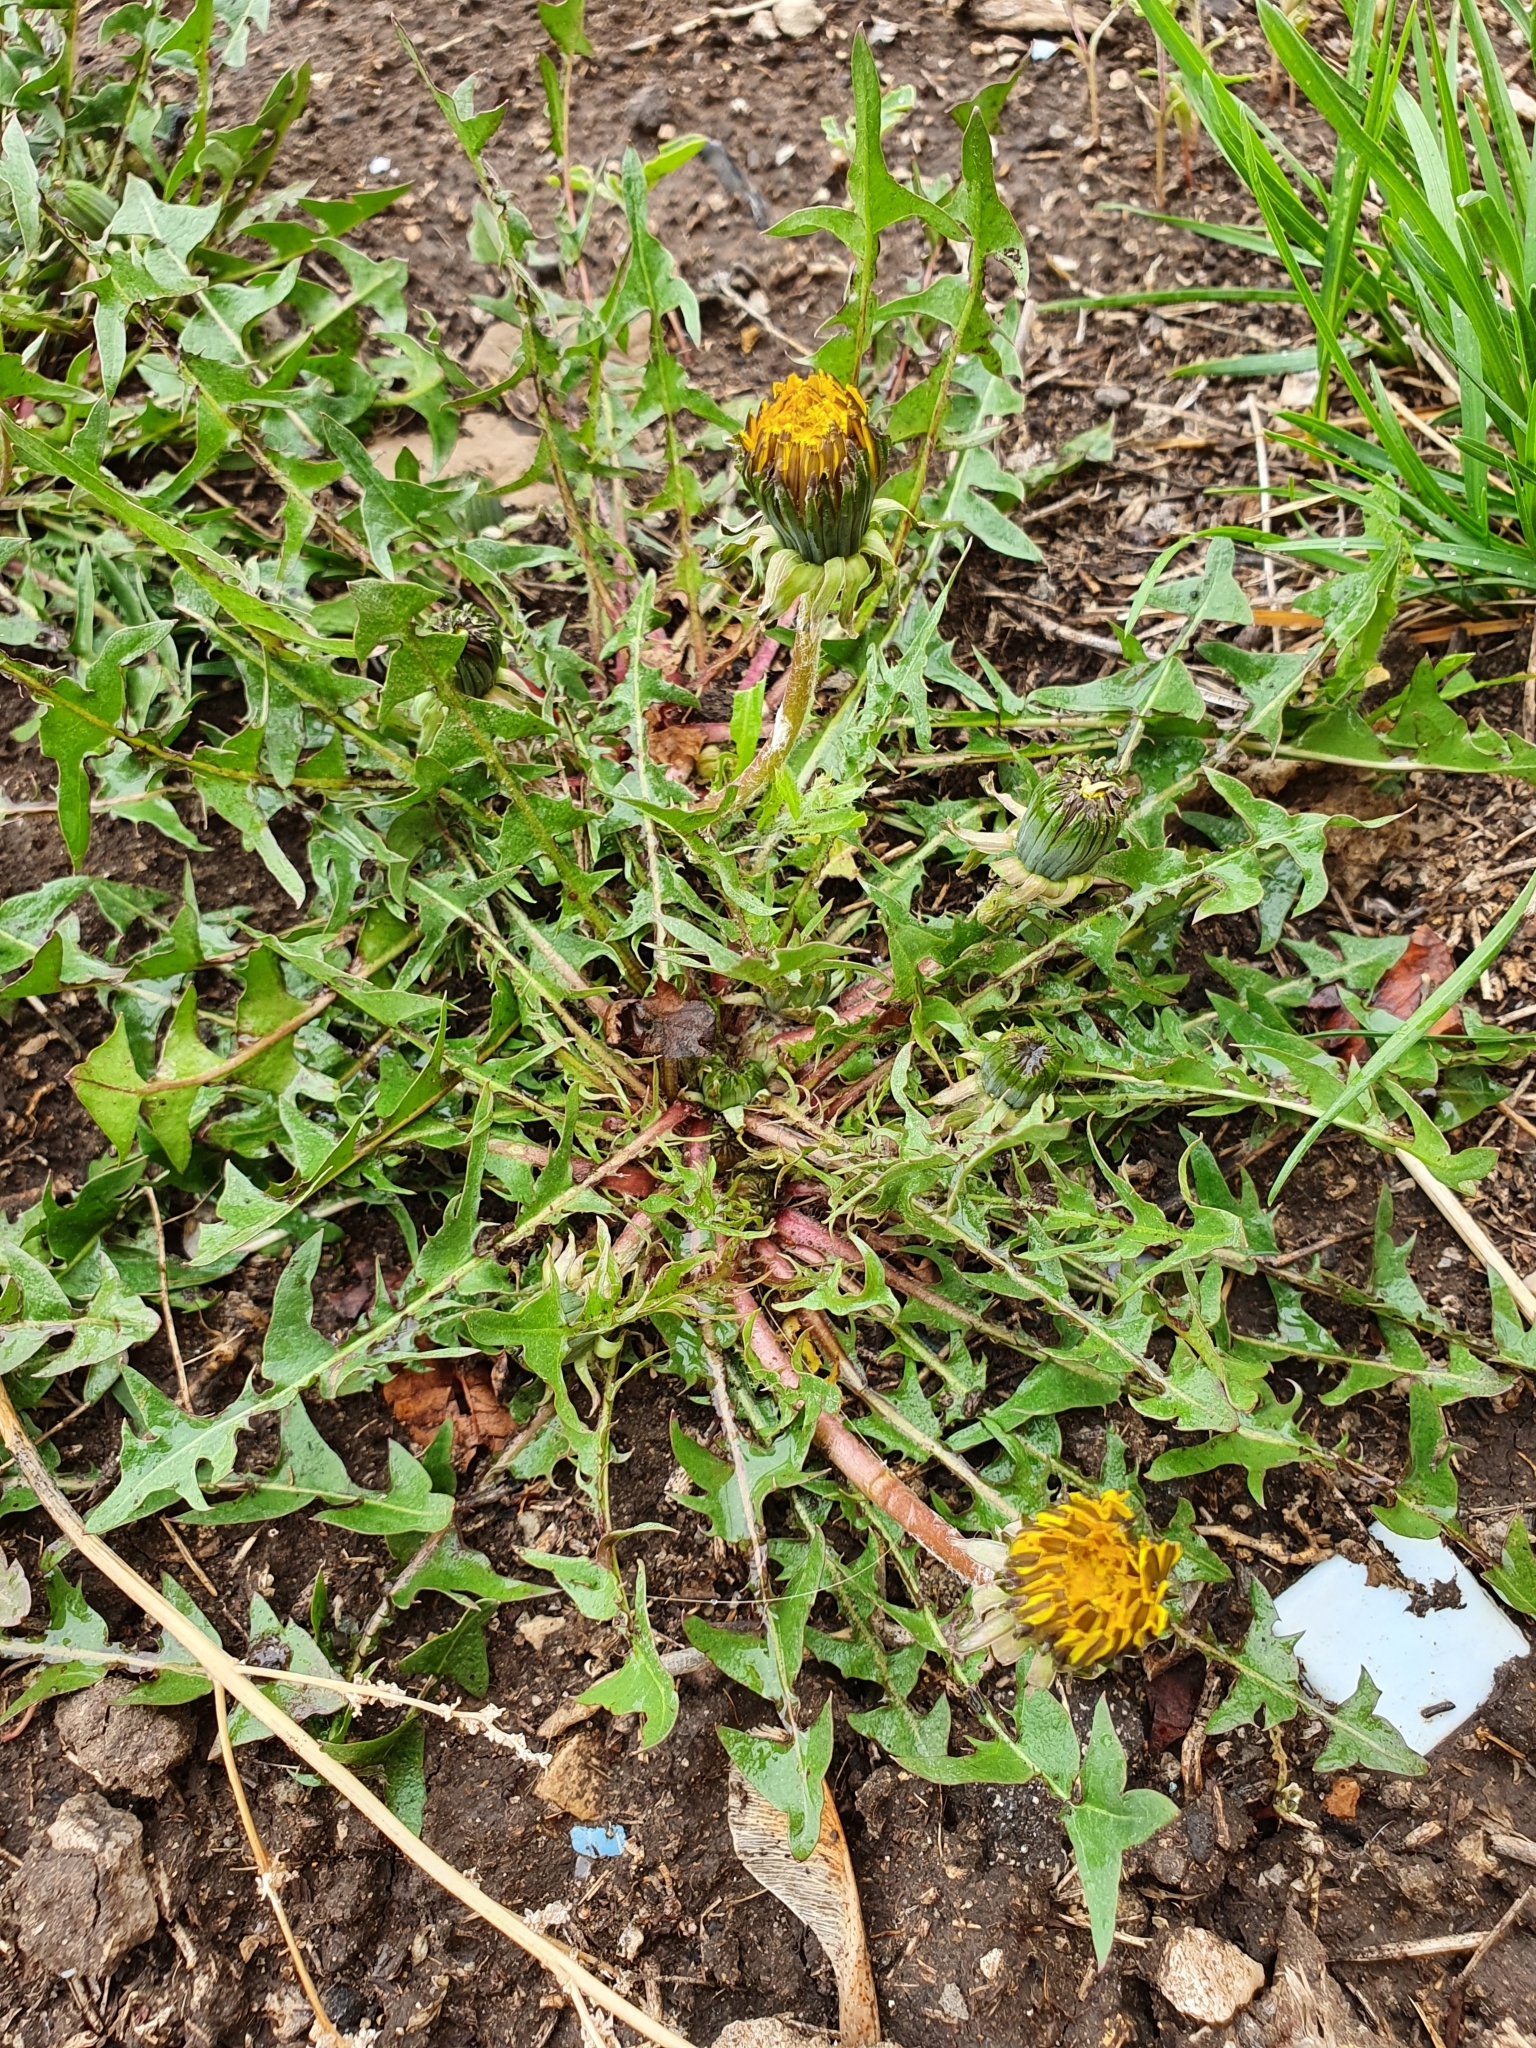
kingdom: Plantae
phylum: Tracheophyta
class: Magnoliopsida
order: Asterales
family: Asteraceae
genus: Taraxacum
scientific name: Taraxacum officinale
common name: Common dandelion
